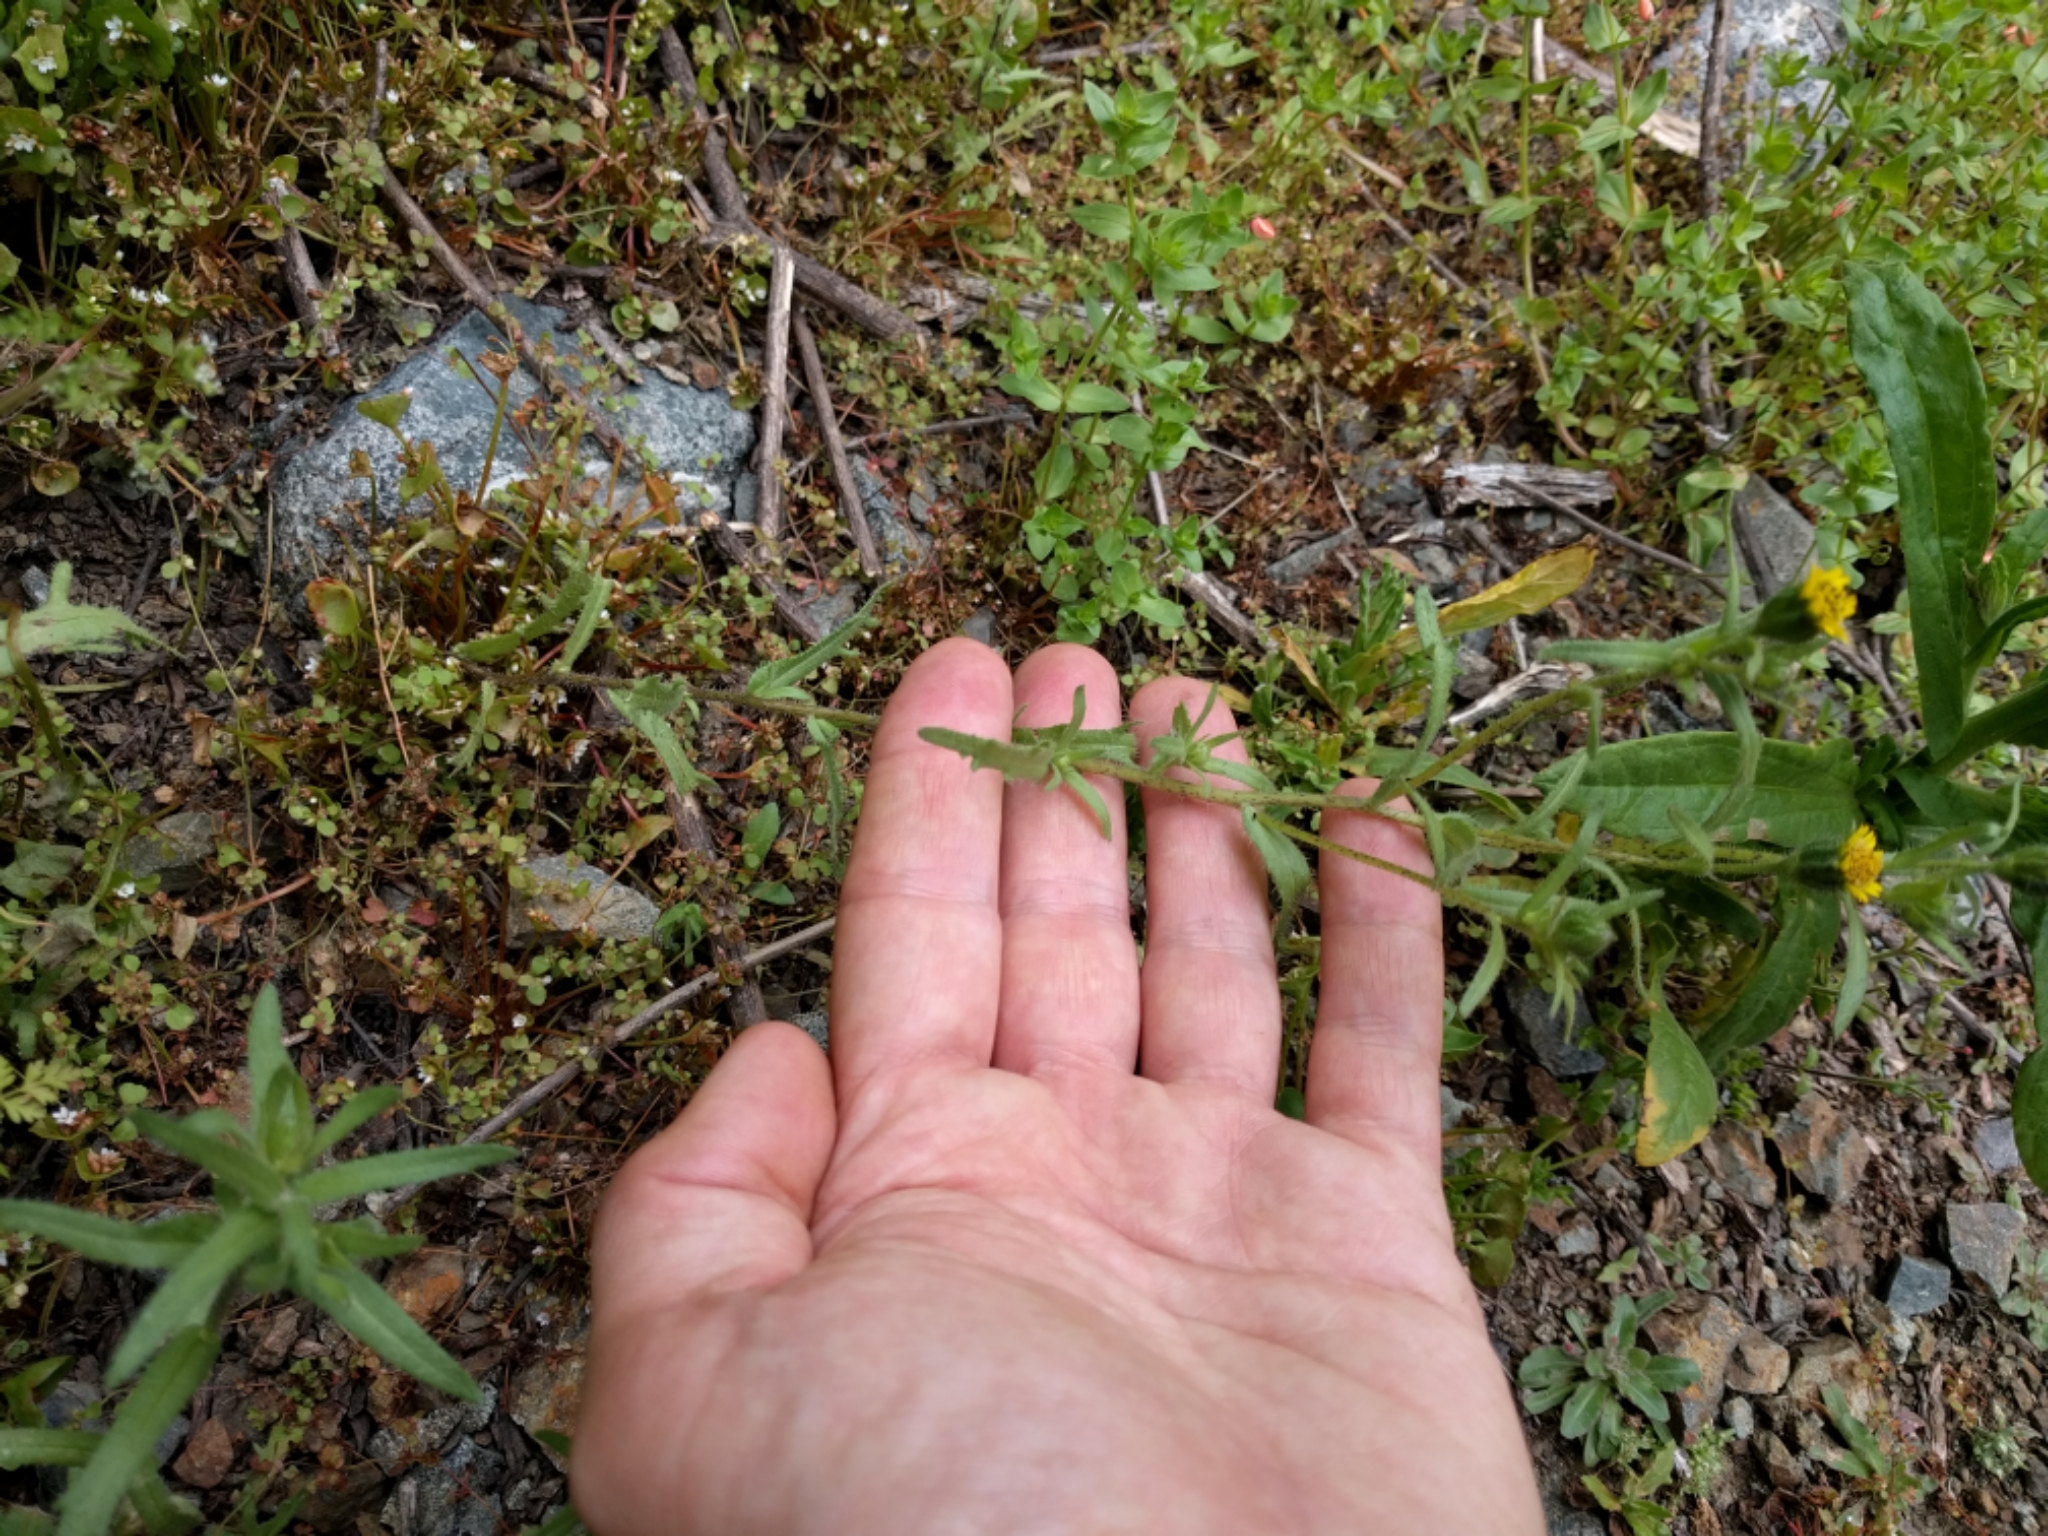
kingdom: Plantae
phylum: Tracheophyta
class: Magnoliopsida
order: Asterales
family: Asteraceae
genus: Layia
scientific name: Layia hieracioides
